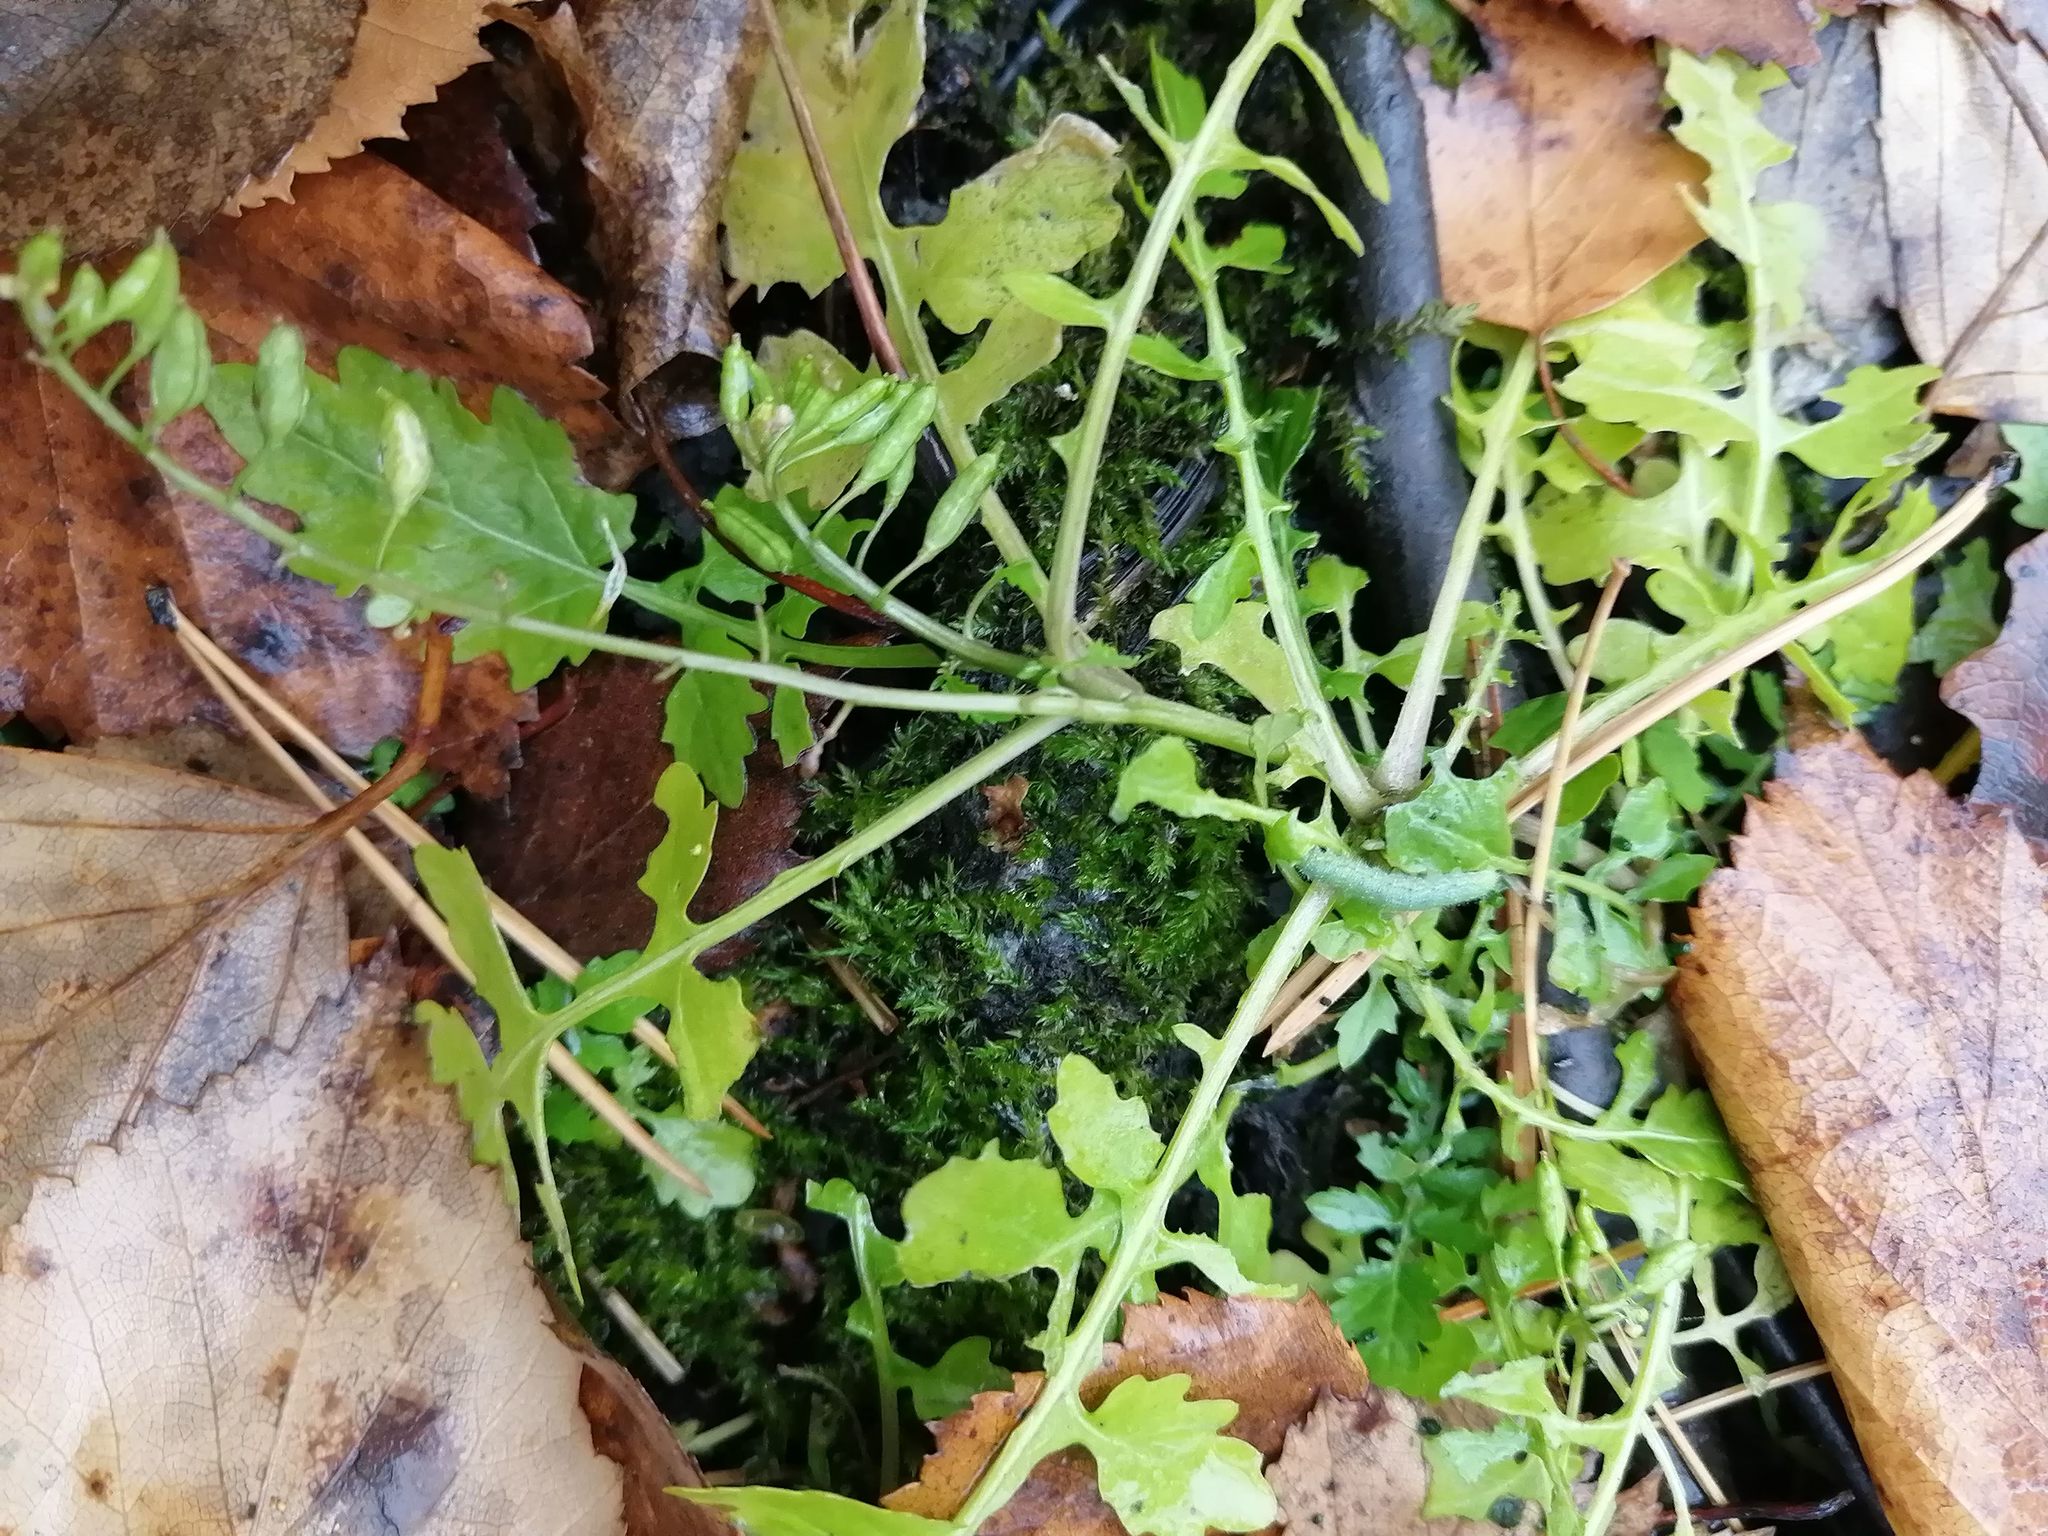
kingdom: Plantae
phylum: Tracheophyta
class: Magnoliopsida
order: Brassicales
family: Brassicaceae
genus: Rorippa
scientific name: Rorippa palustris
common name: Marsh yellow-cress
